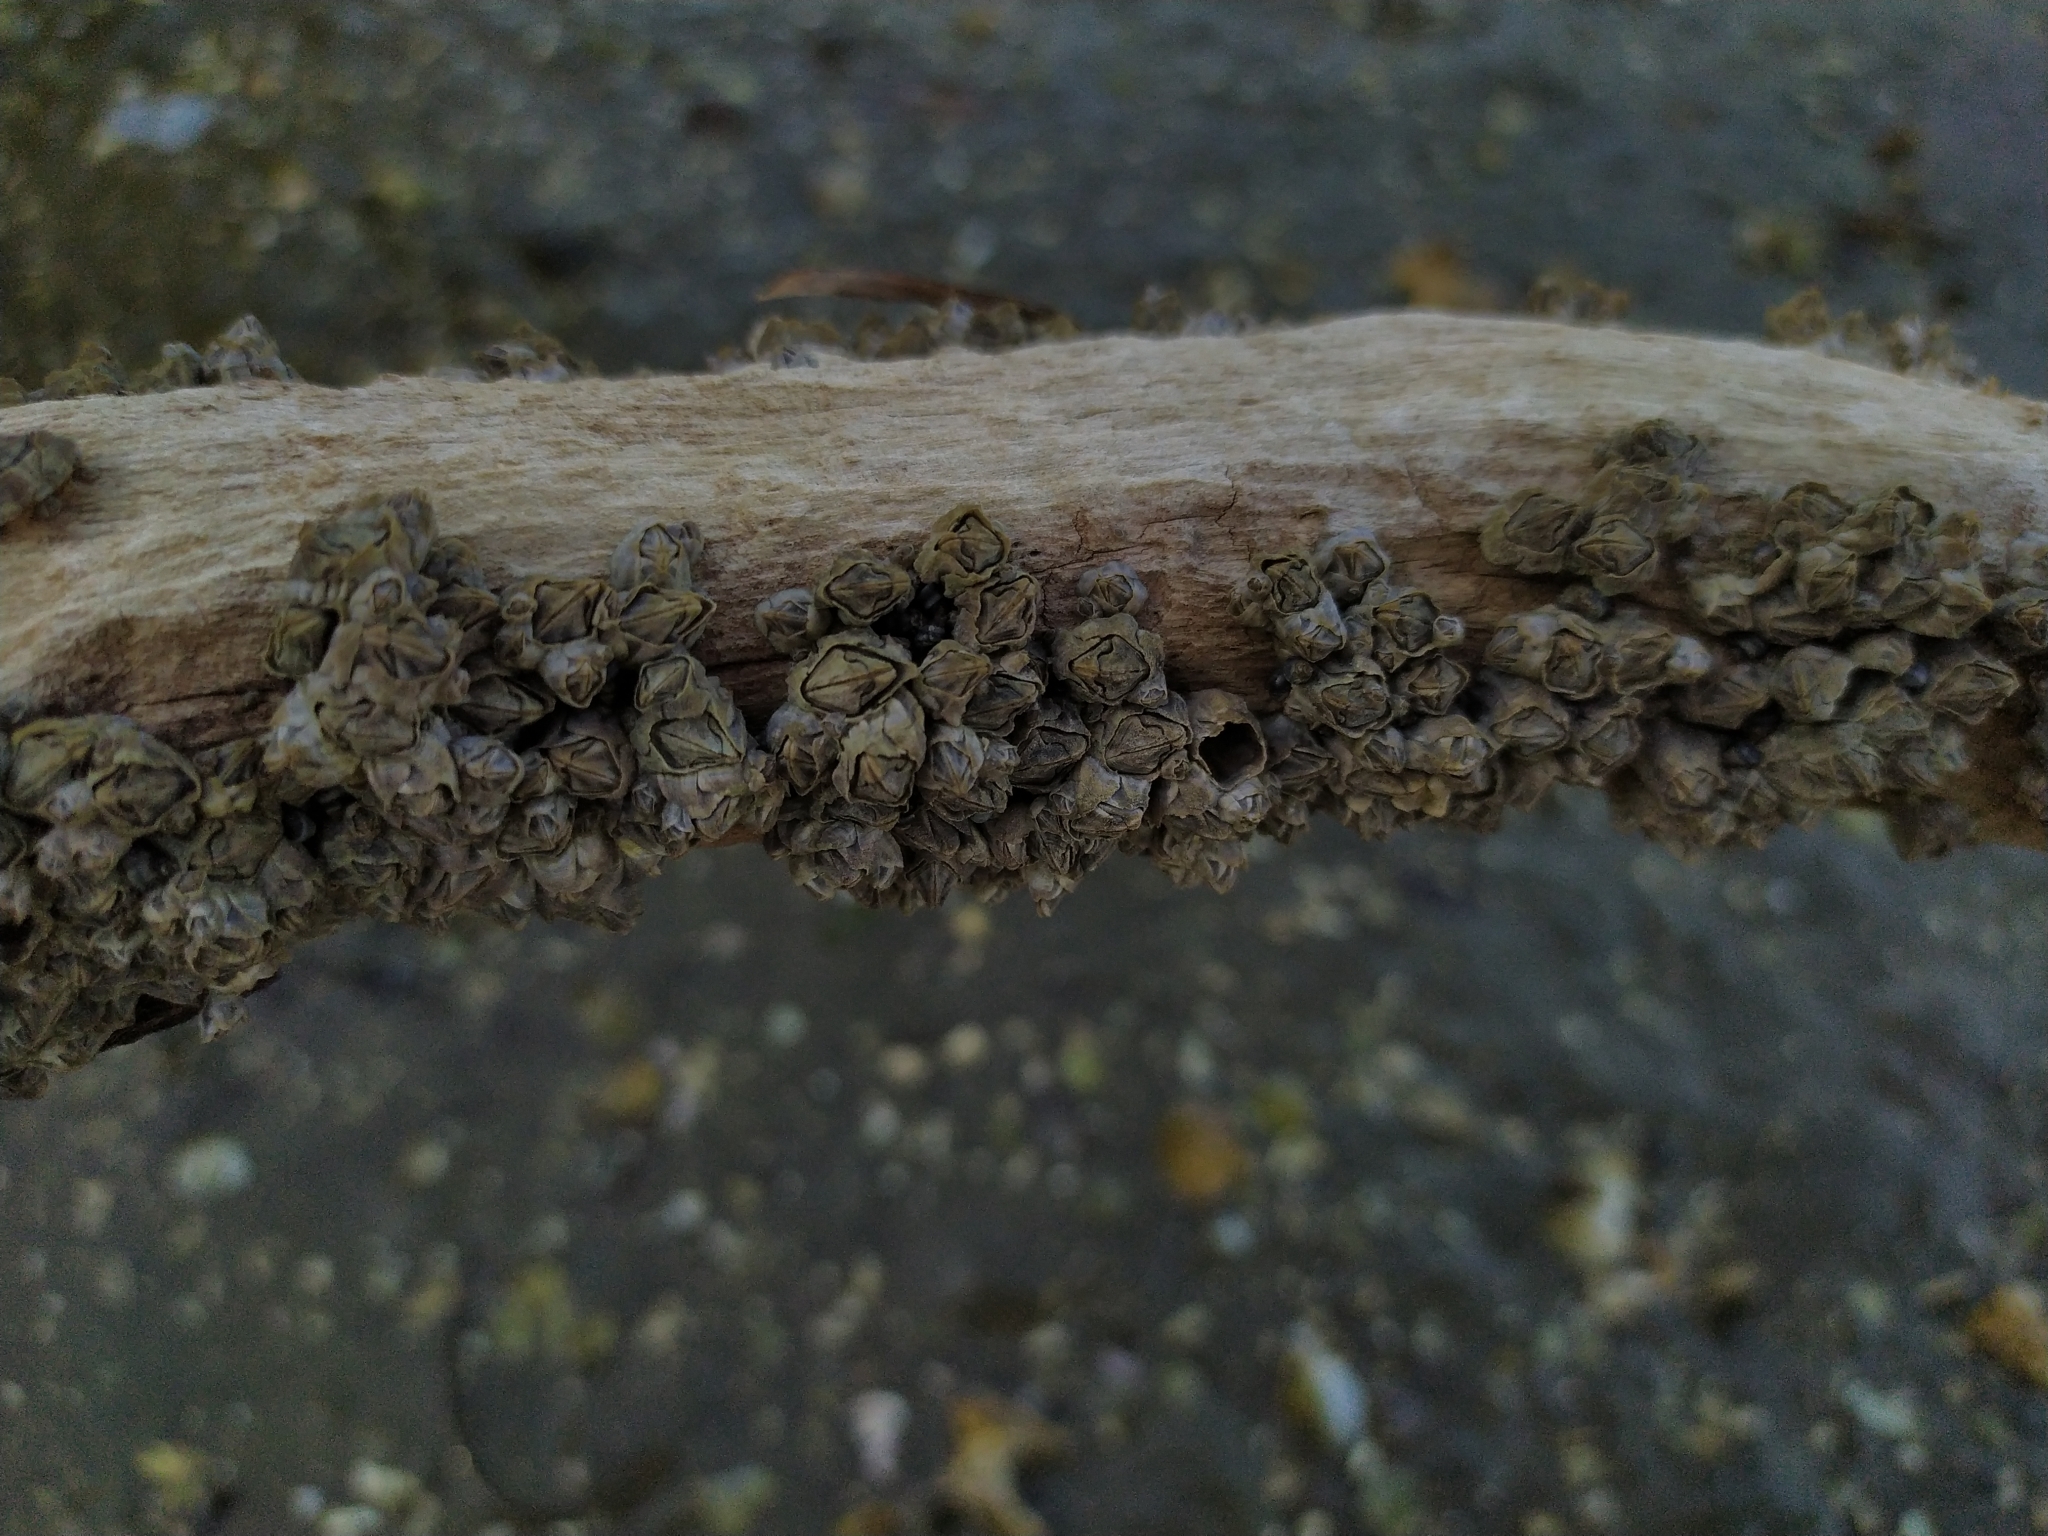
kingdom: Animalia
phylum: Arthropoda
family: Elminiidae
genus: Austrominius
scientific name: Austrominius modestus
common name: Australasian barnacle
